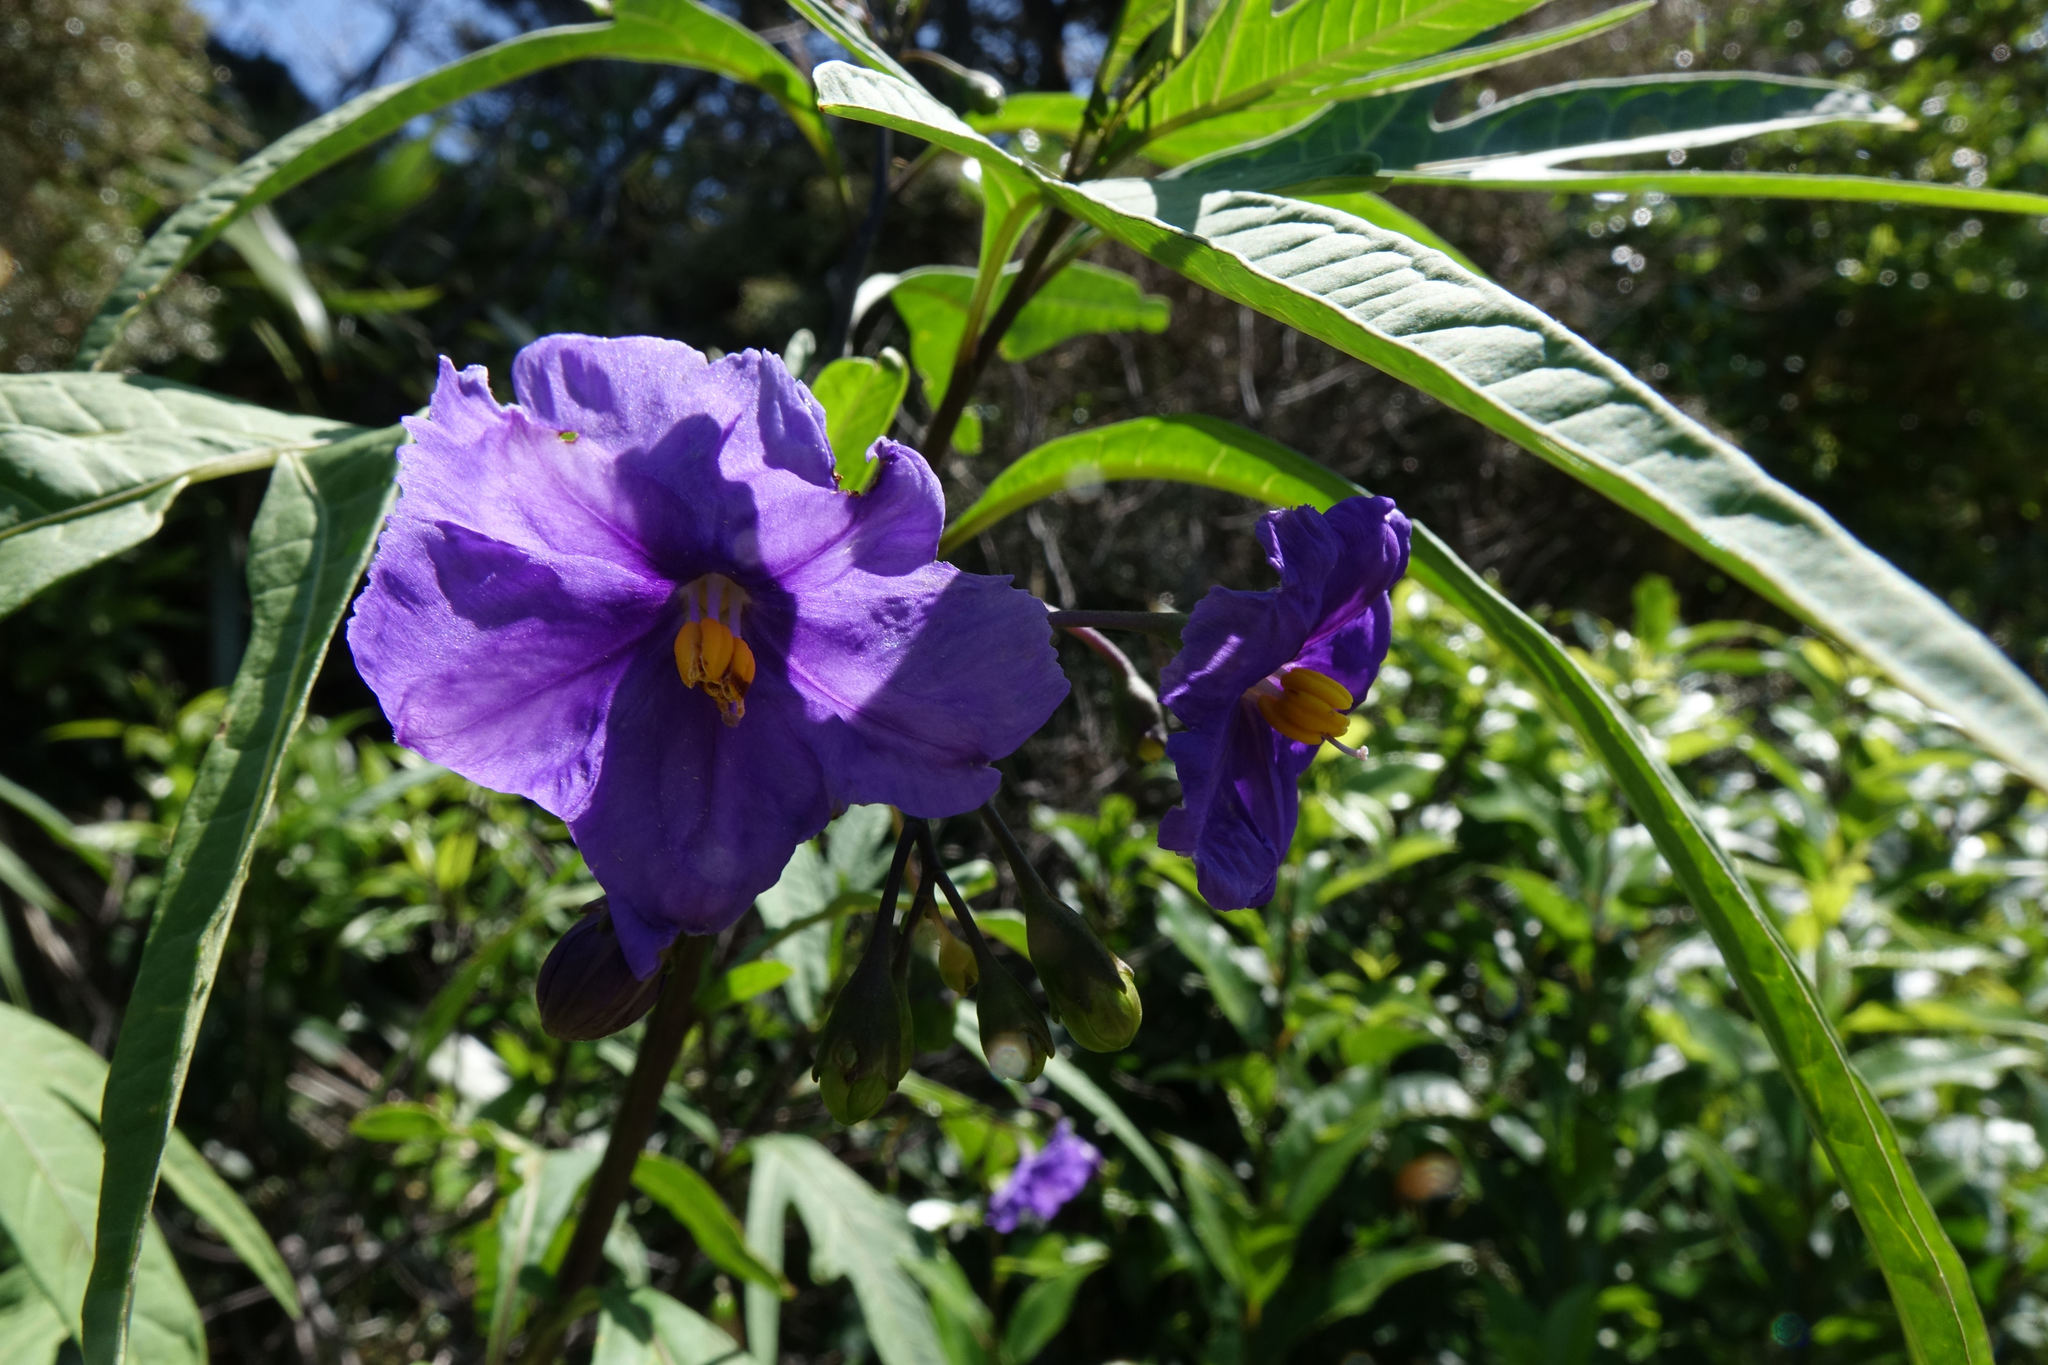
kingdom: Plantae
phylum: Tracheophyta
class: Magnoliopsida
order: Solanales
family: Solanaceae
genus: Solanum
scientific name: Solanum laciniatum
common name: Kangaroo-apple
